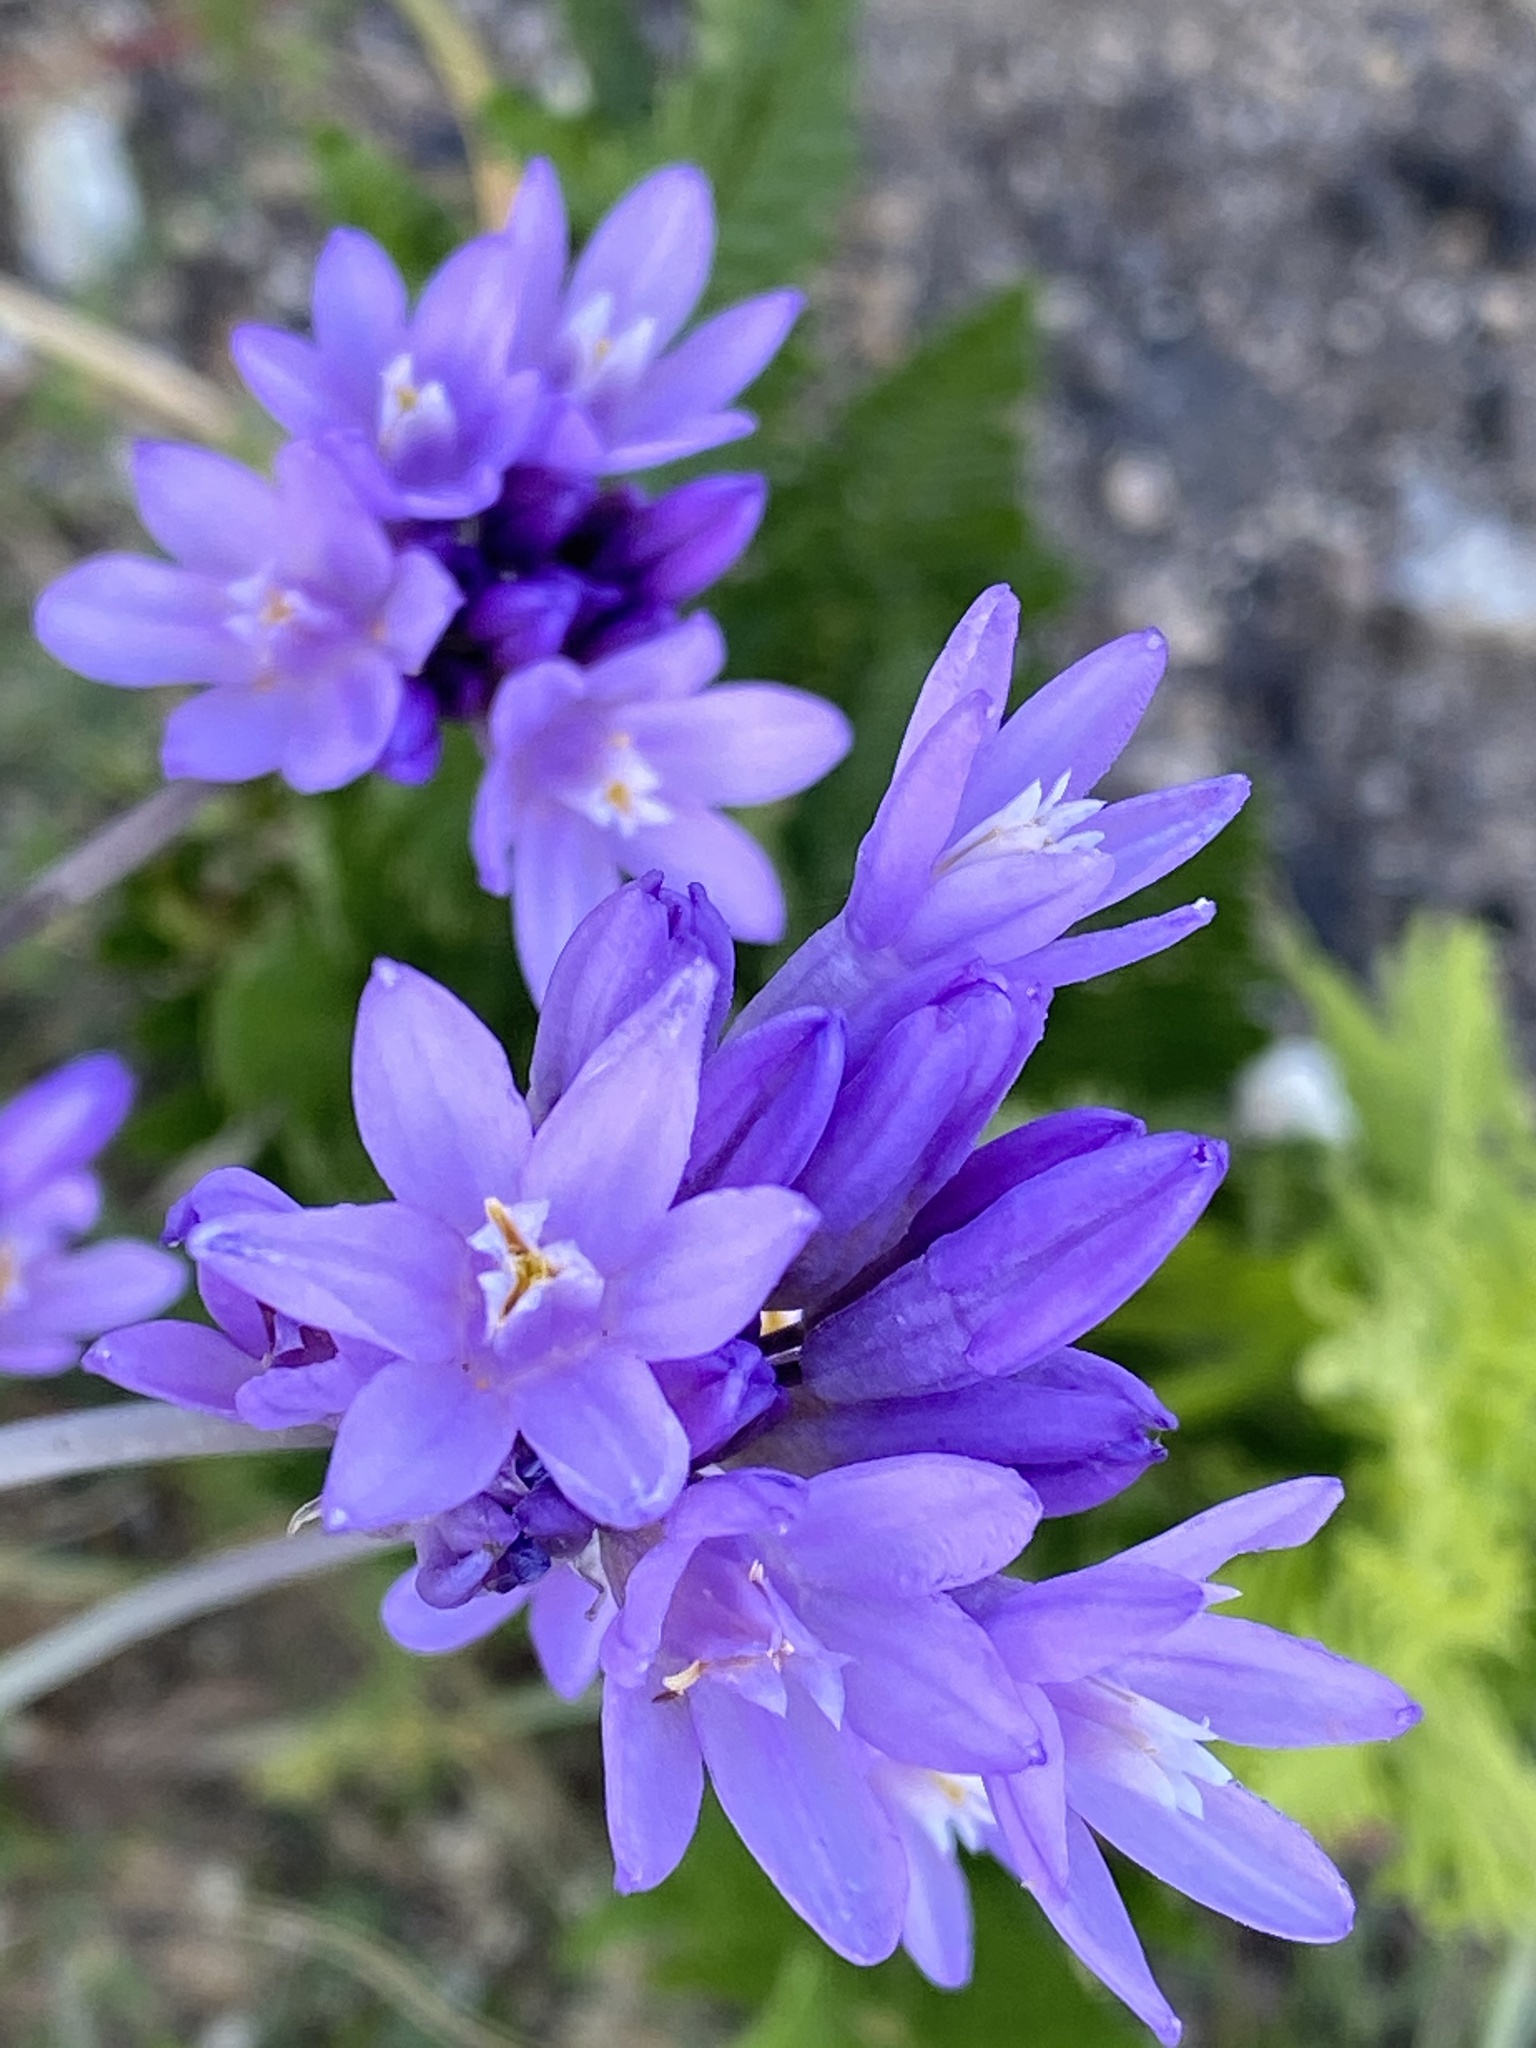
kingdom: Plantae
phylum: Tracheophyta
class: Liliopsida
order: Asparagales
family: Asparagaceae
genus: Dipterostemon
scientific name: Dipterostemon capitatus
